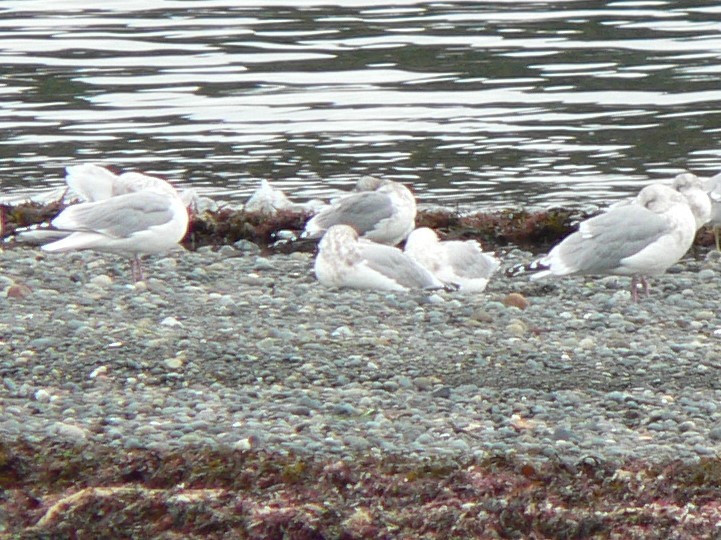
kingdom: Animalia
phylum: Chordata
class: Aves
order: Charadriiformes
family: Laridae
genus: Larus
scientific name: Larus glaucoides
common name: Iceland gull
